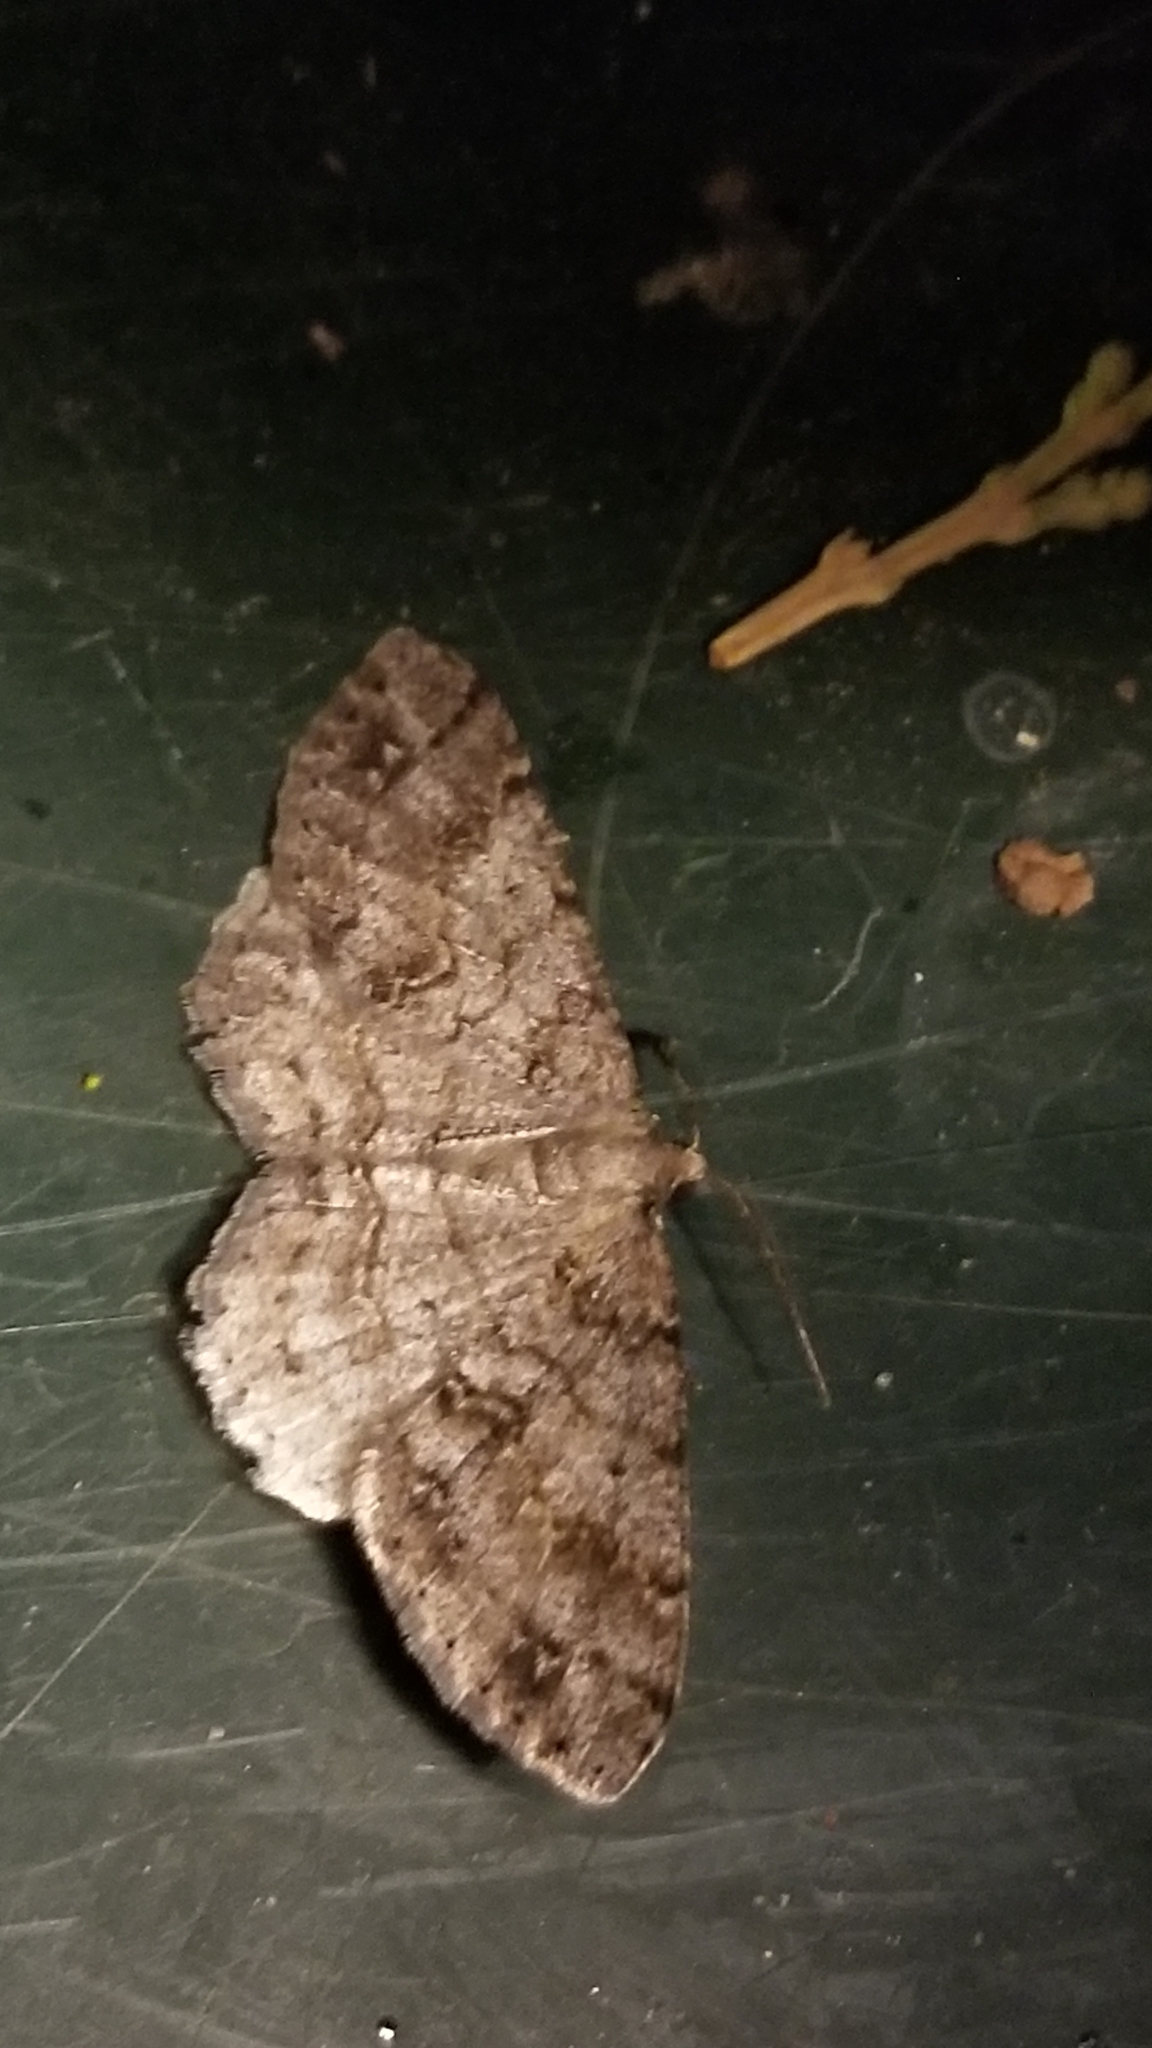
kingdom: Animalia
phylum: Arthropoda
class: Insecta
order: Lepidoptera
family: Geometridae
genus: Melanolophia
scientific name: Melanolophia imitata
